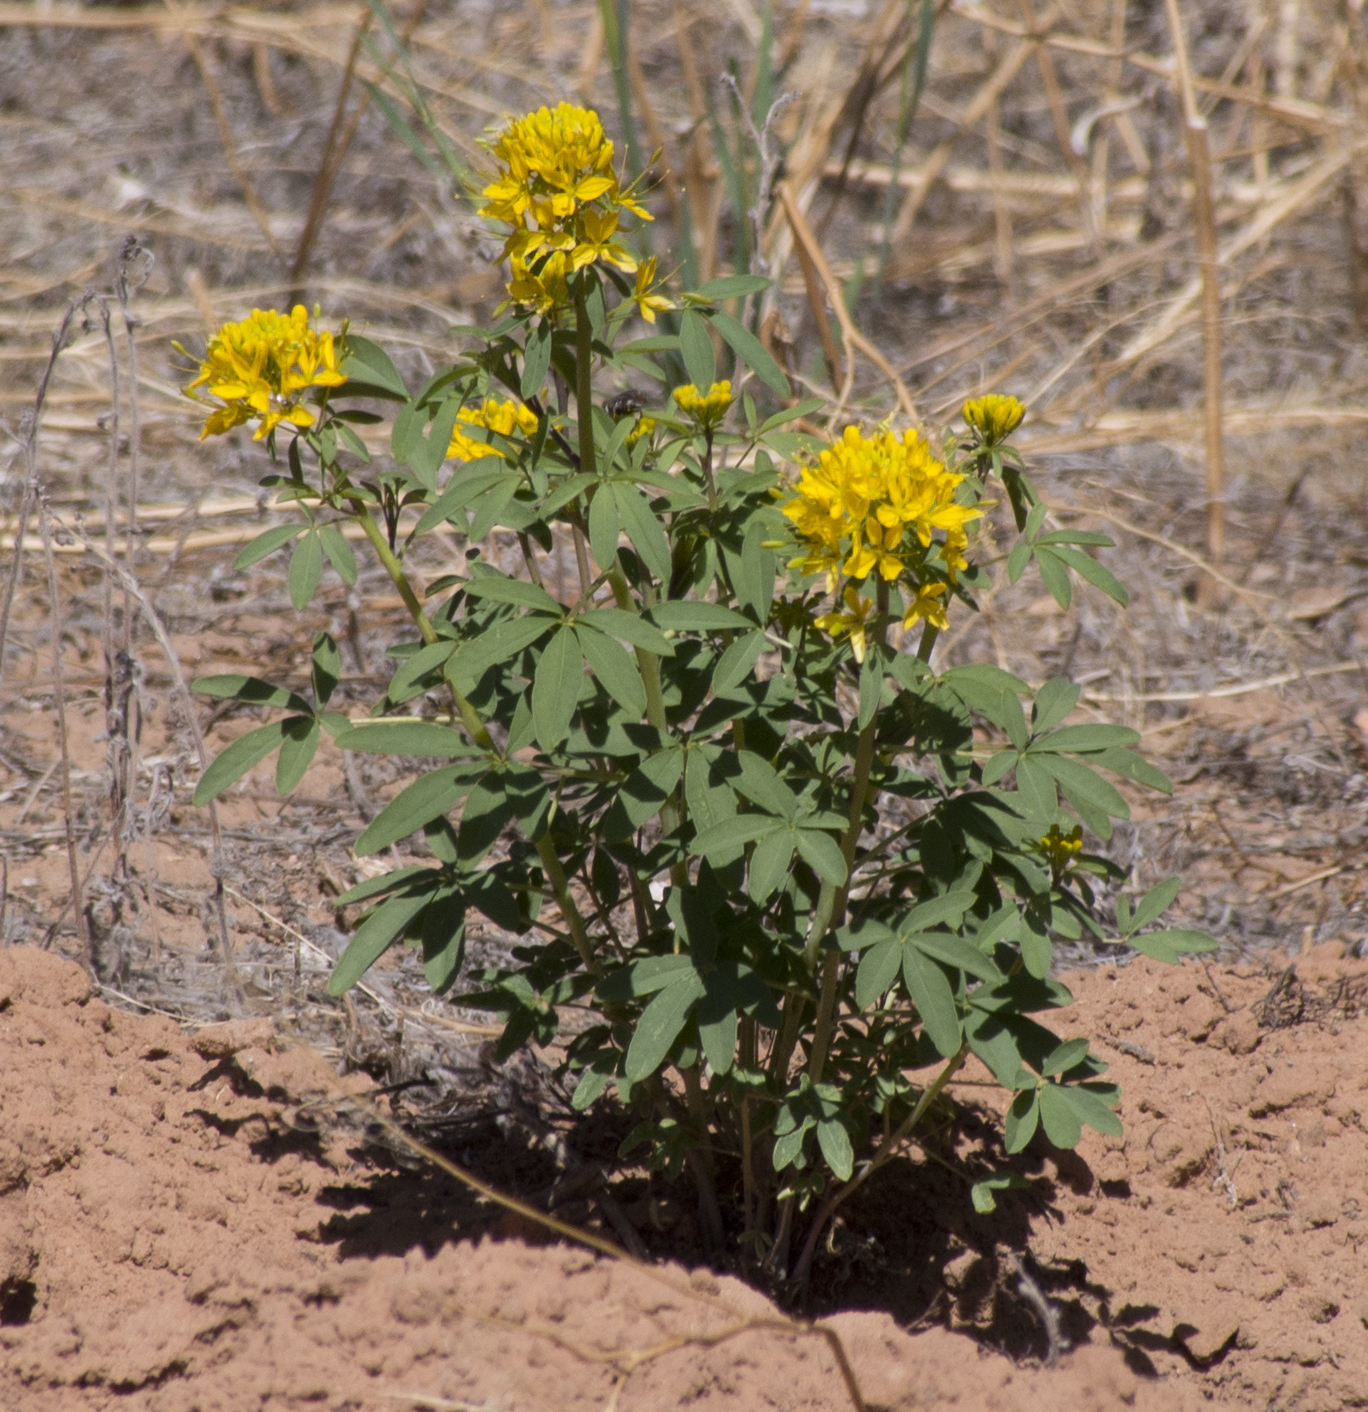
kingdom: Plantae
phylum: Tracheophyta
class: Magnoliopsida
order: Brassicales
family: Cleomaceae
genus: Cleomella
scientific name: Cleomella lutea
